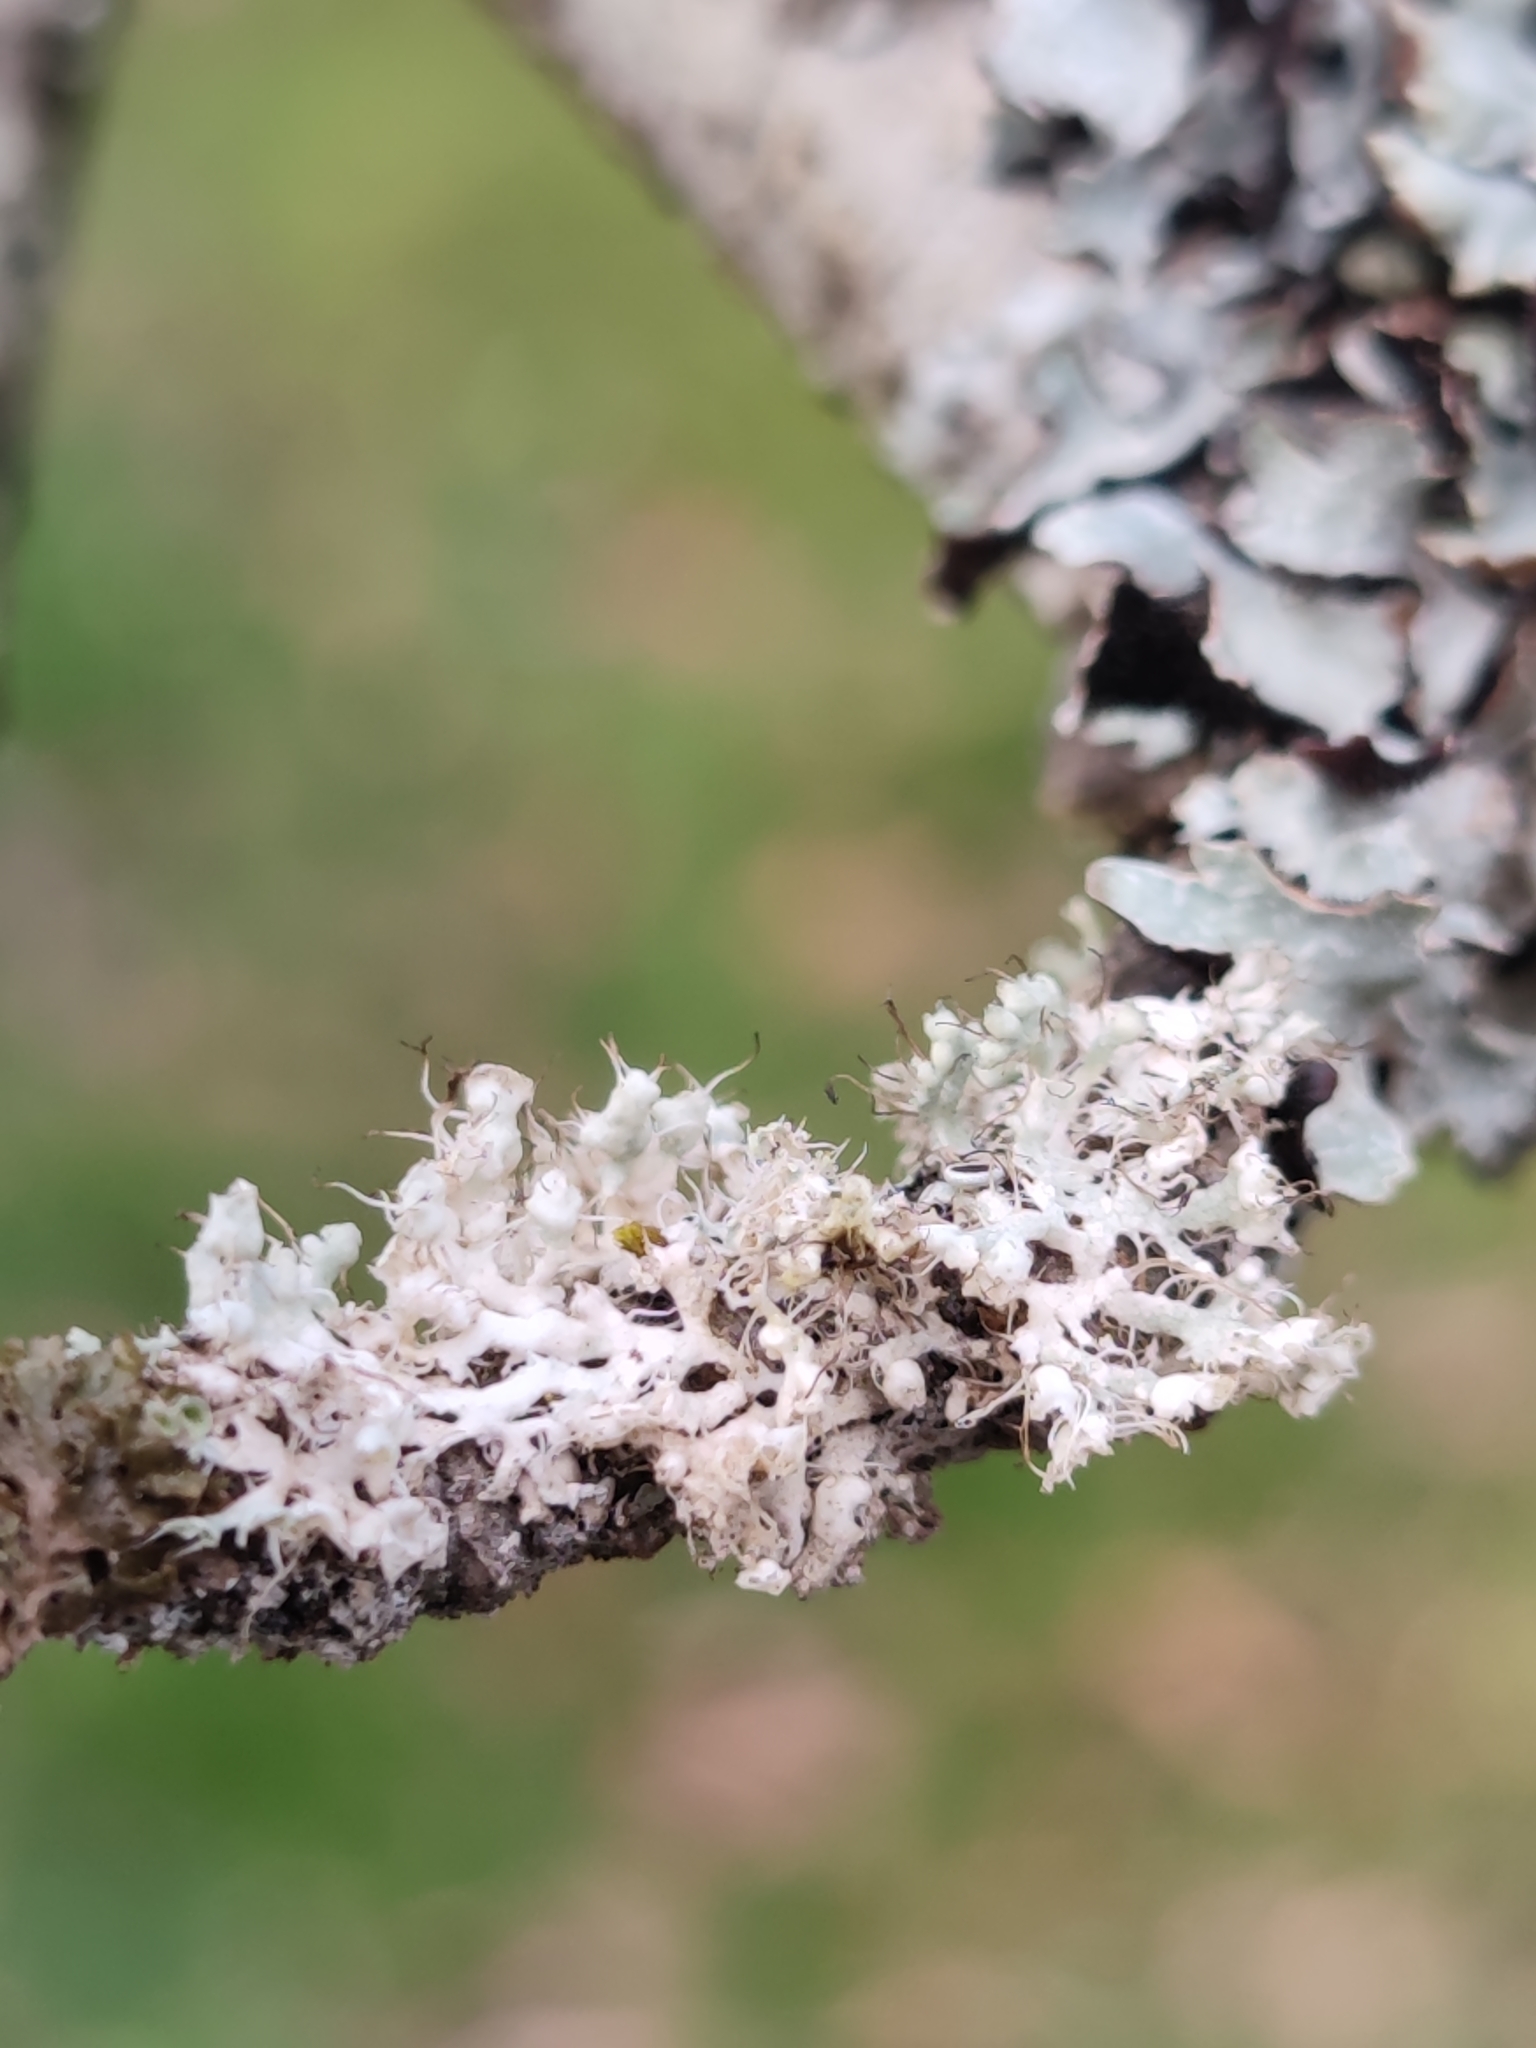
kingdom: Fungi
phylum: Ascomycota
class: Lecanoromycetes
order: Caliciales
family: Physciaceae
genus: Physcia
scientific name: Physcia adscendens
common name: Hooded rosette lichen
